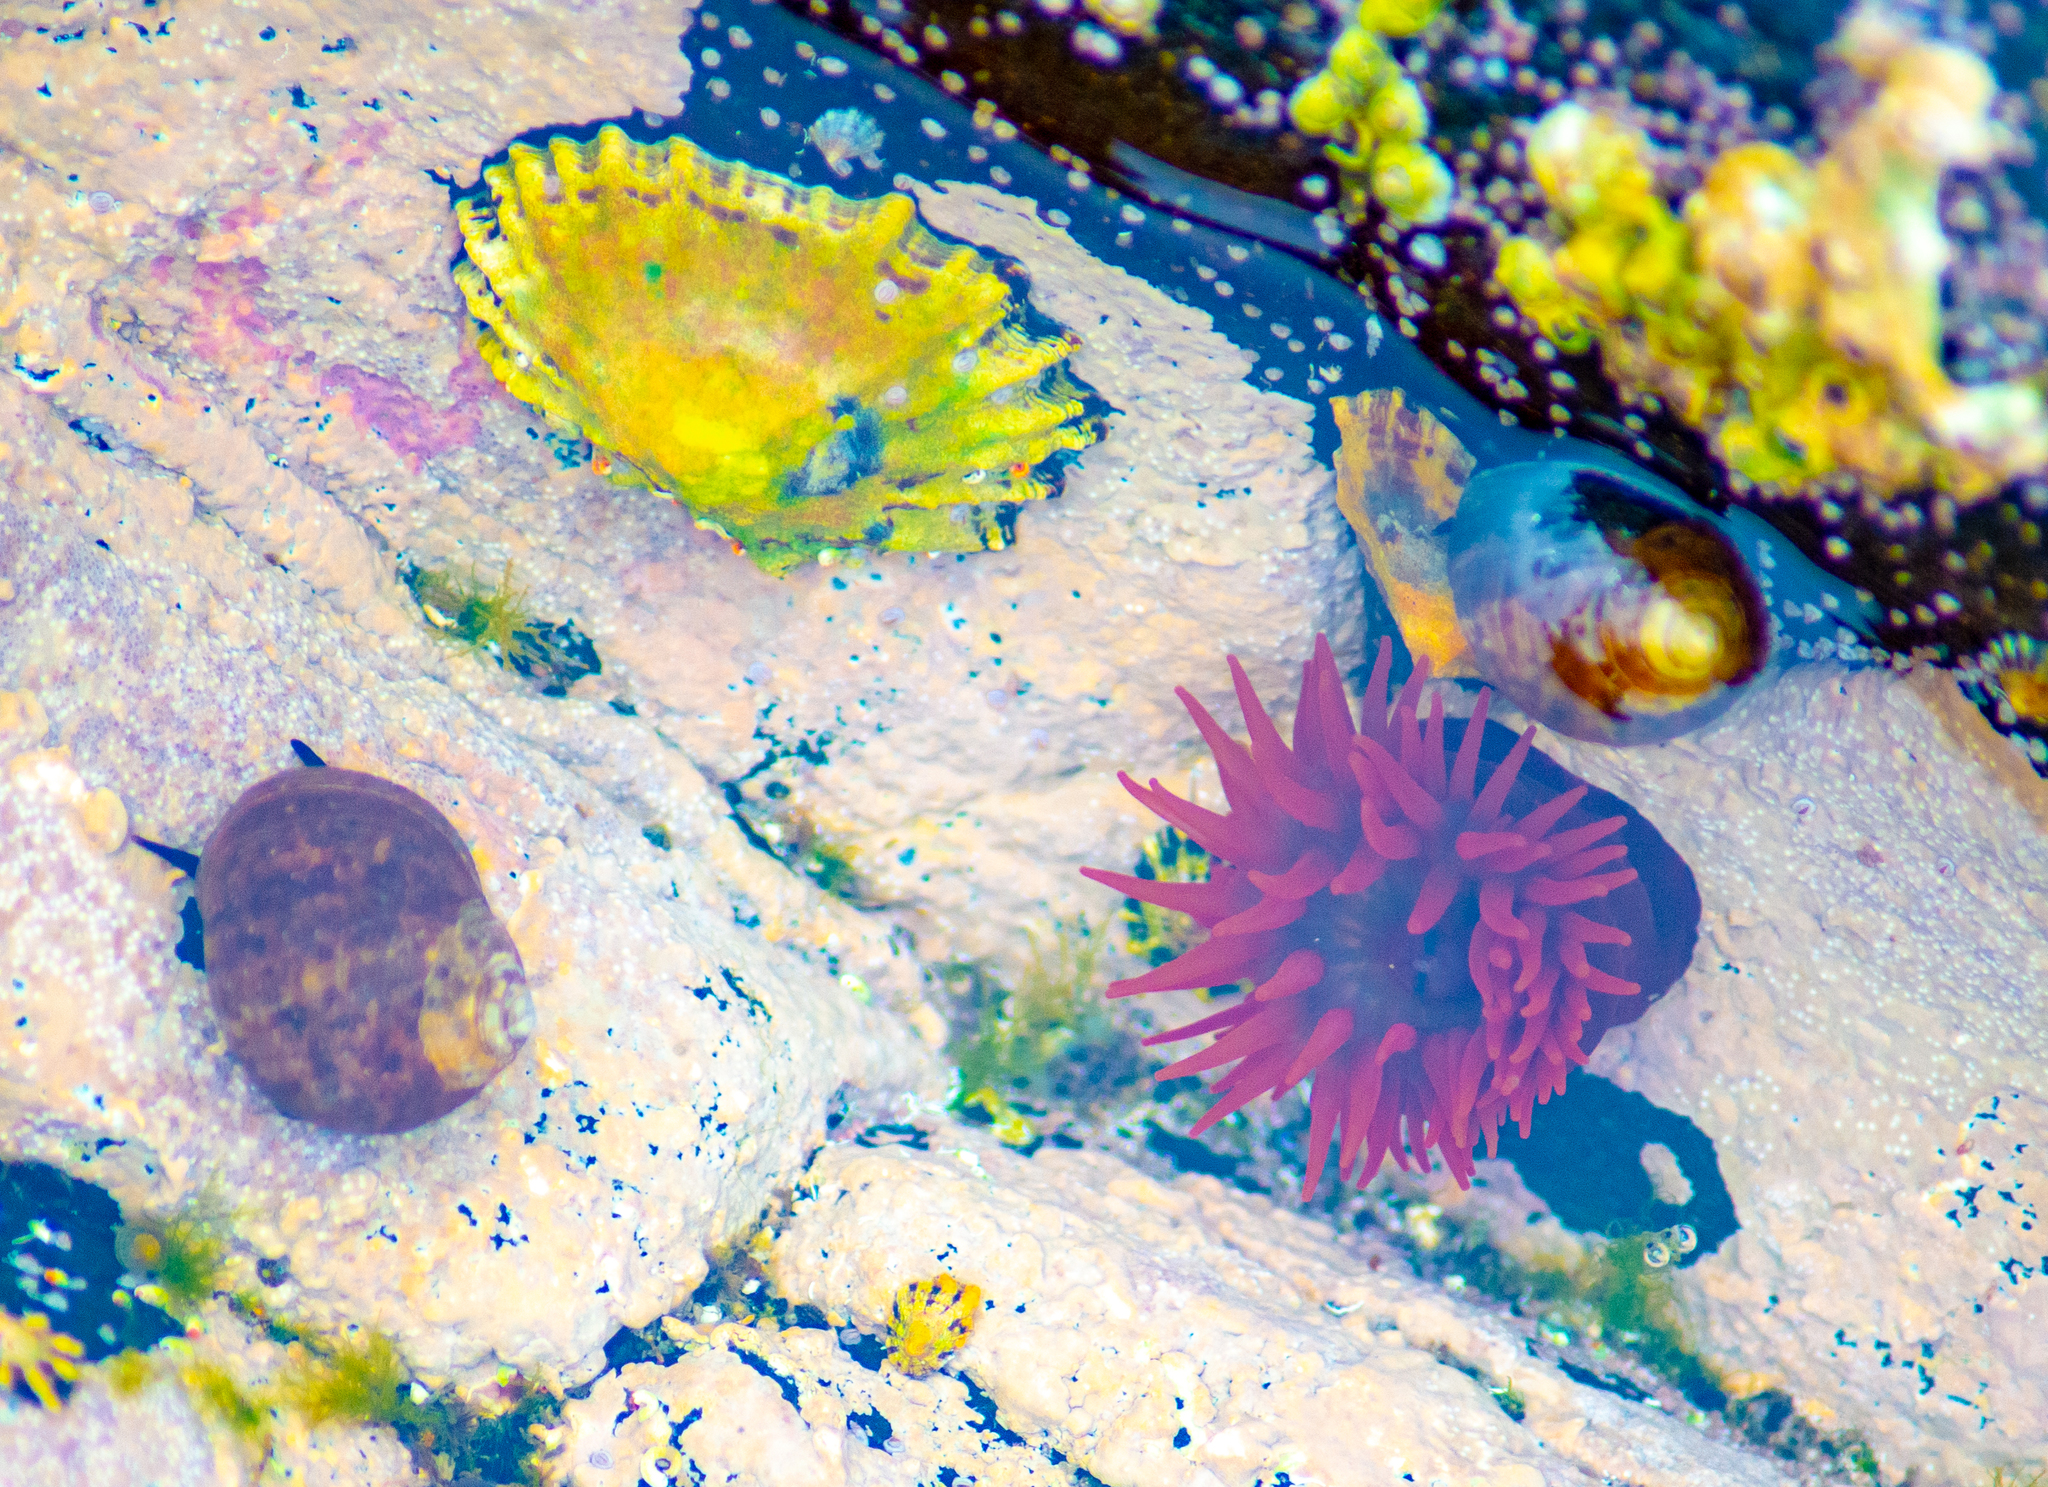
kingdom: Animalia
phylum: Cnidaria
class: Anthozoa
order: Actiniaria
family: Actiniidae
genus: Actinia
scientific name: Actinia equina
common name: Beadlet anemone
